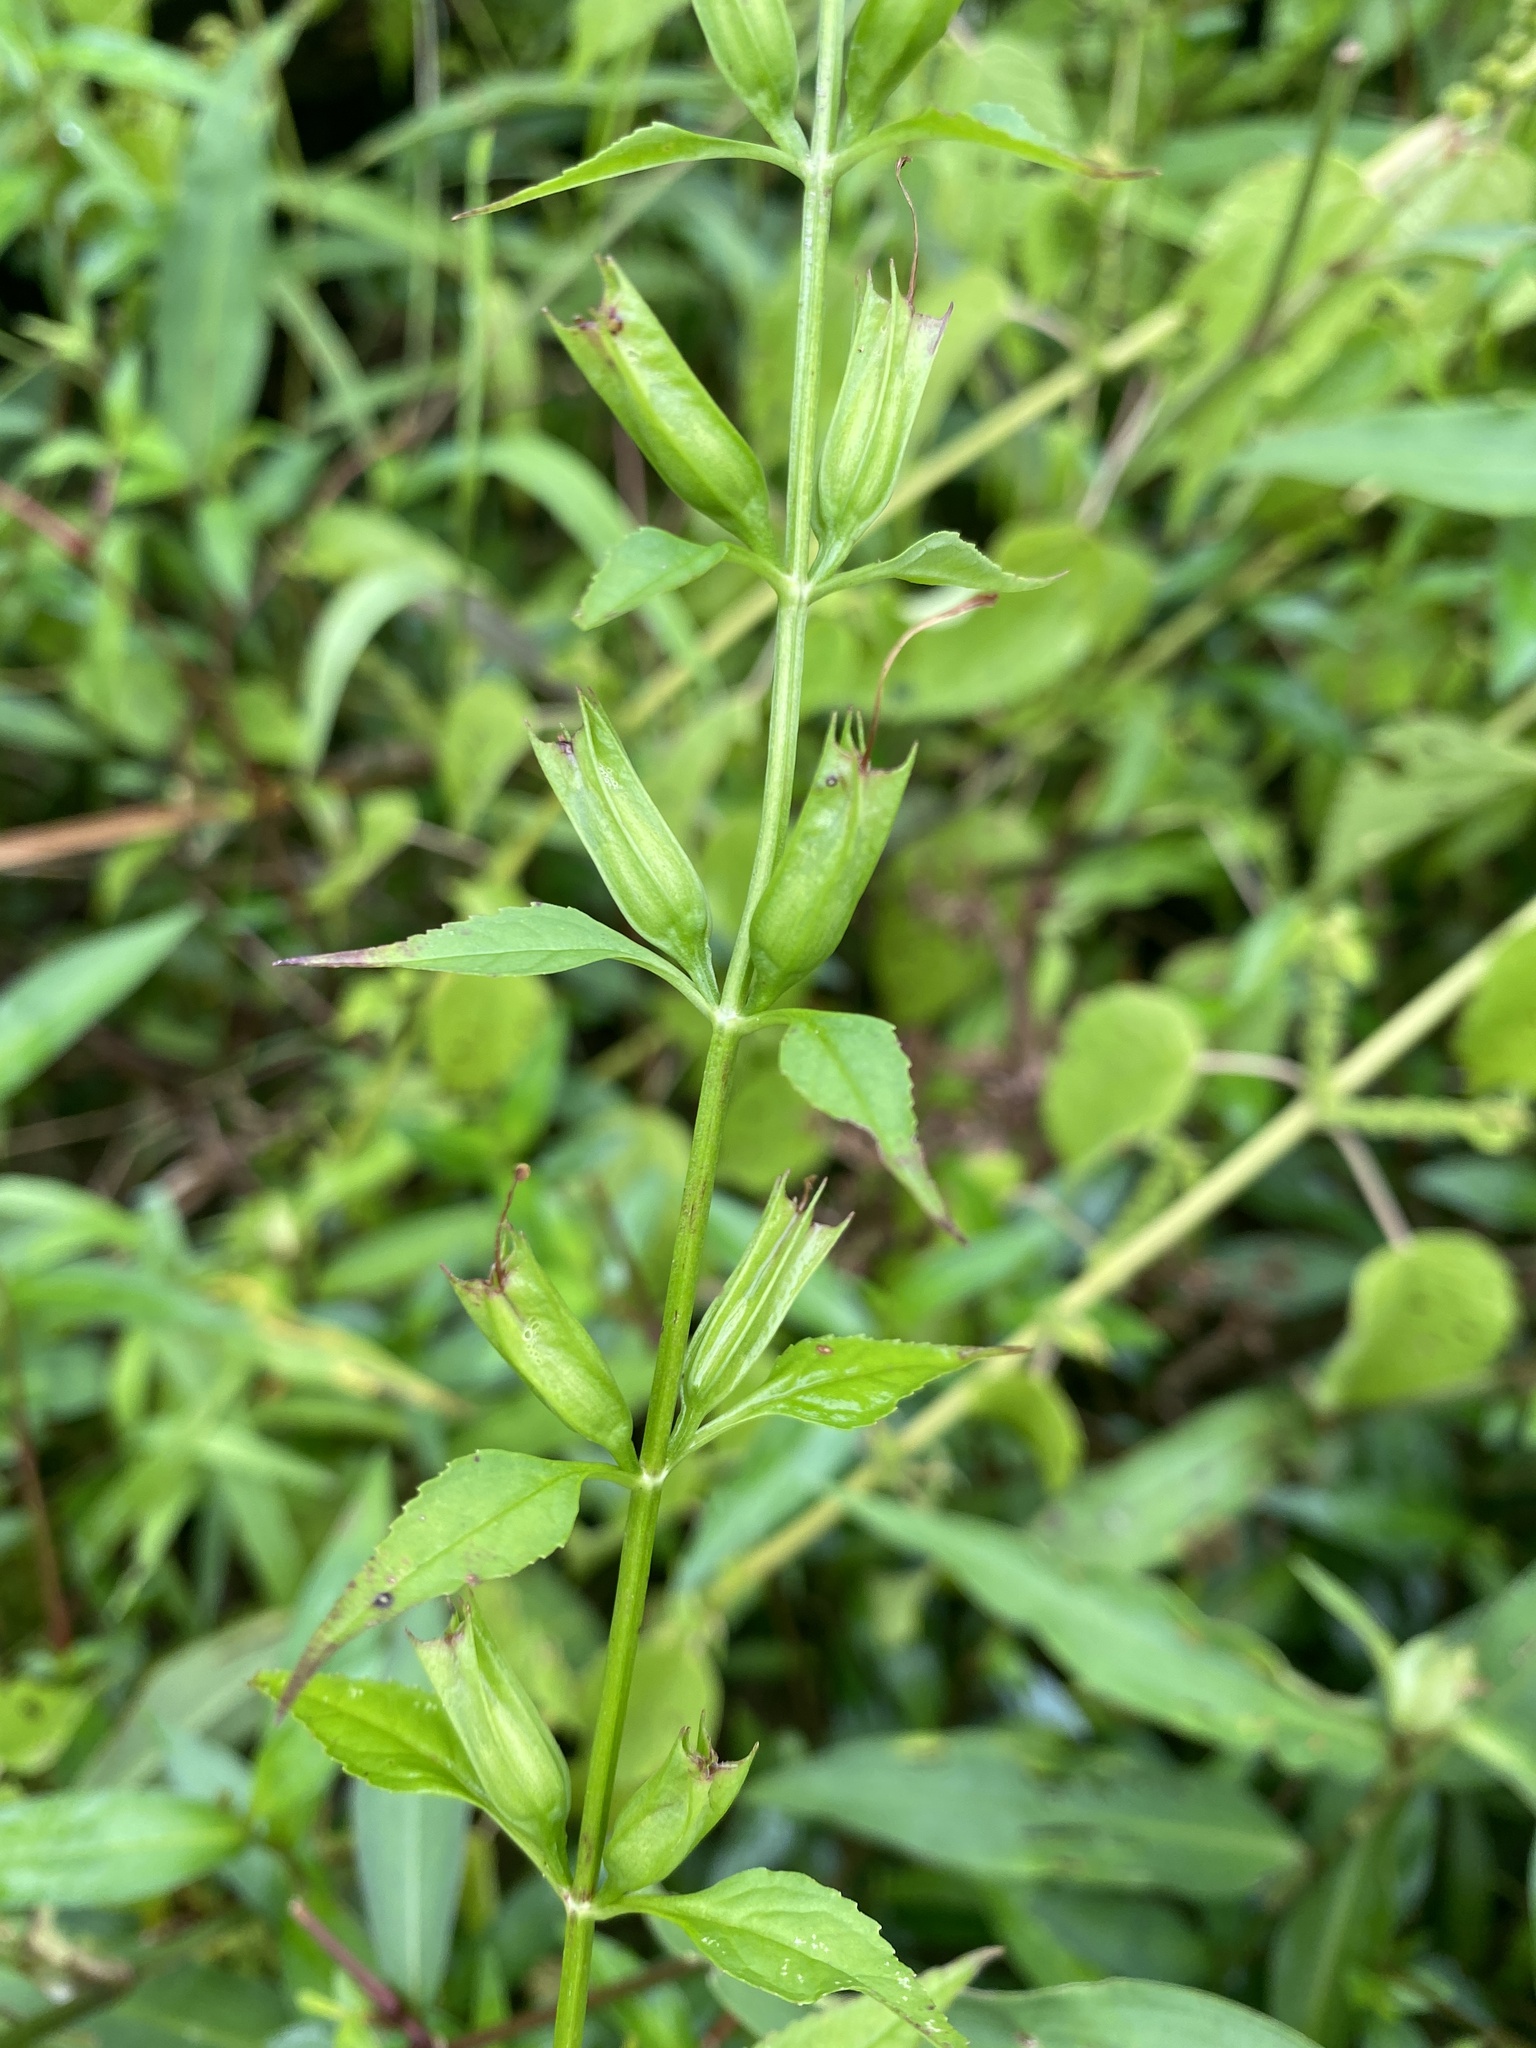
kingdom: Plantae
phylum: Tracheophyta
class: Magnoliopsida
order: Lamiales
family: Phrymaceae
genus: Mimulus
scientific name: Mimulus alatus
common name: Sharp-wing monkey-flower
